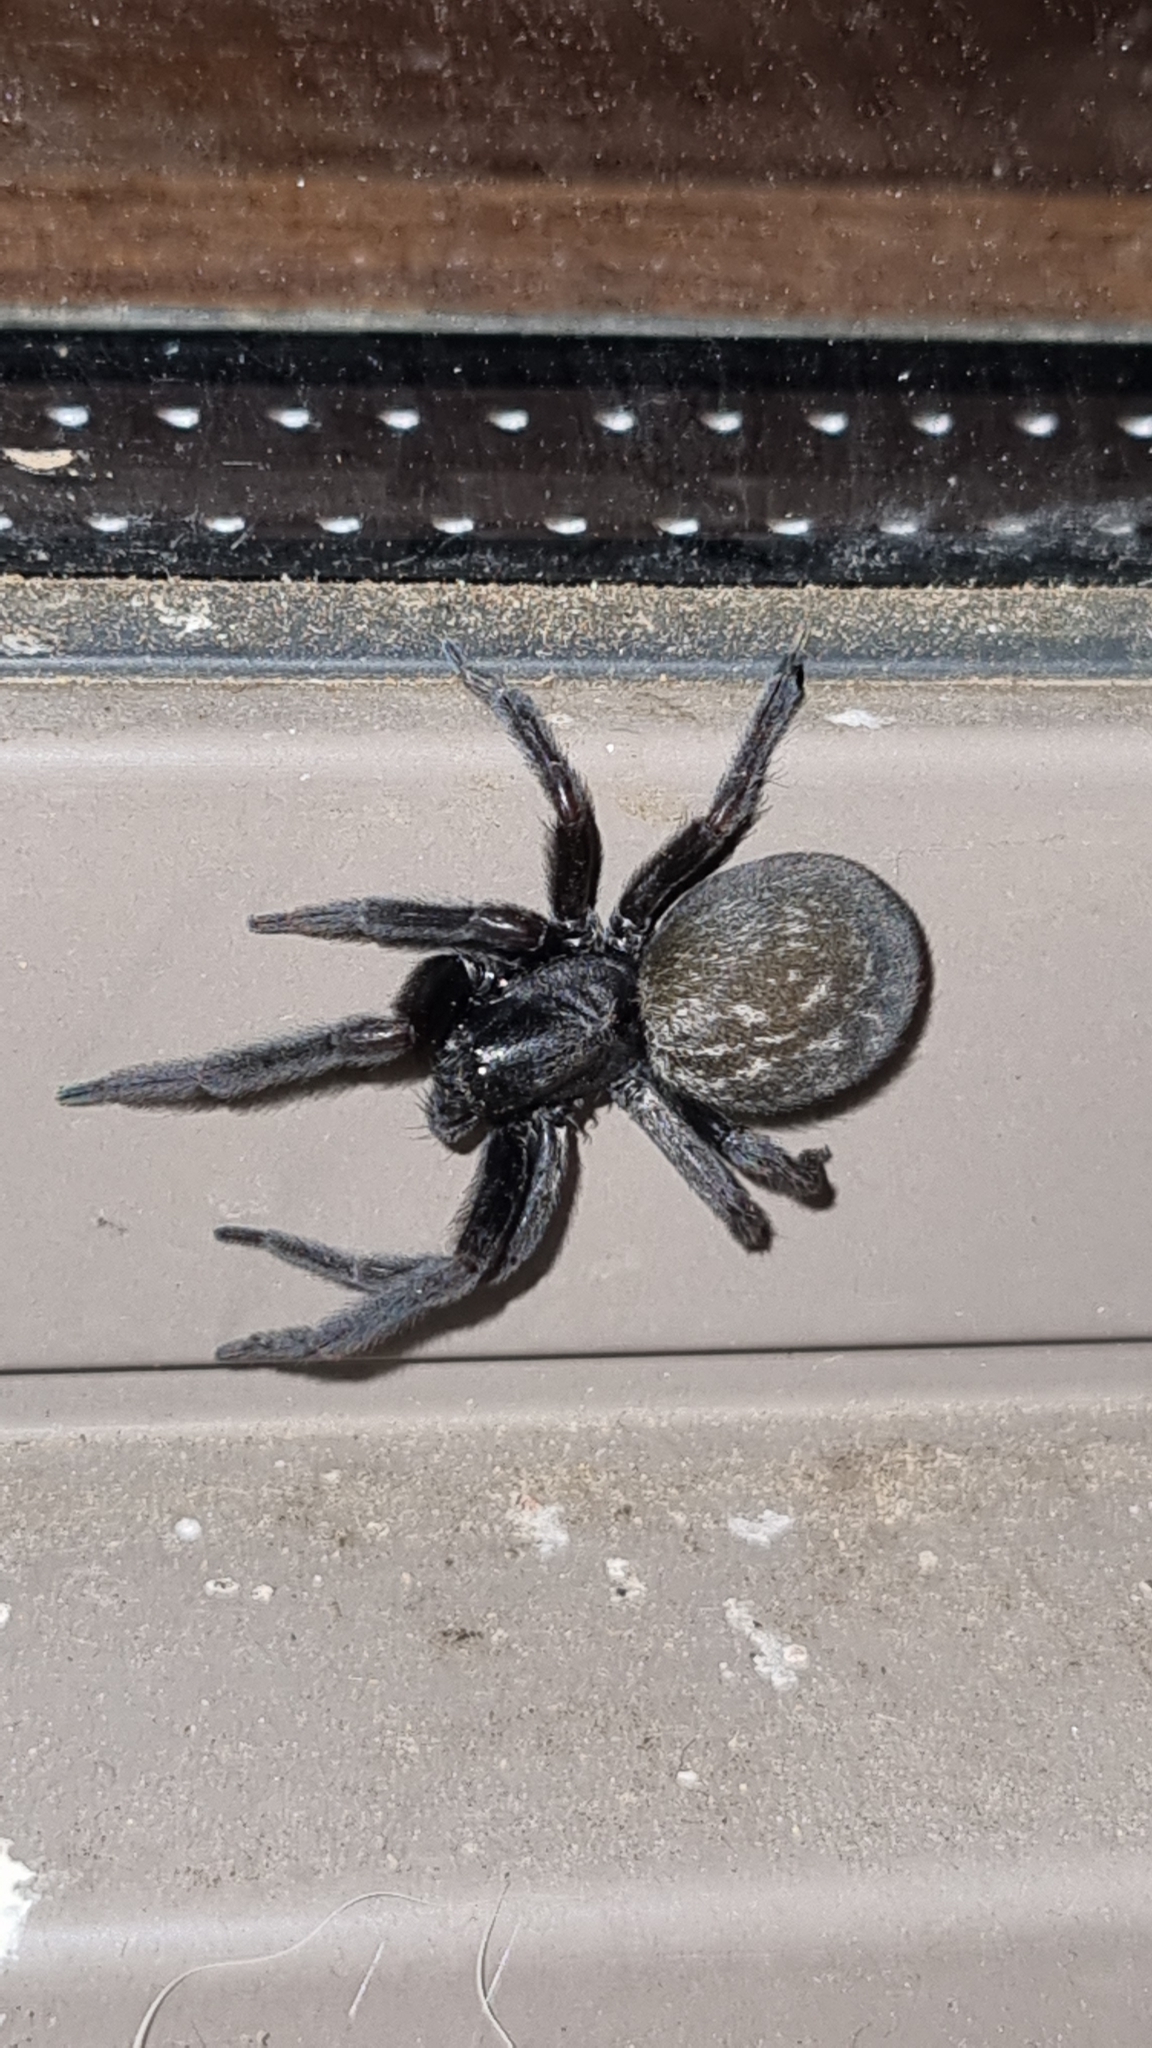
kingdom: Animalia
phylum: Arthropoda
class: Arachnida
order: Araneae
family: Desidae
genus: Badumna
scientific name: Badumna insignis
